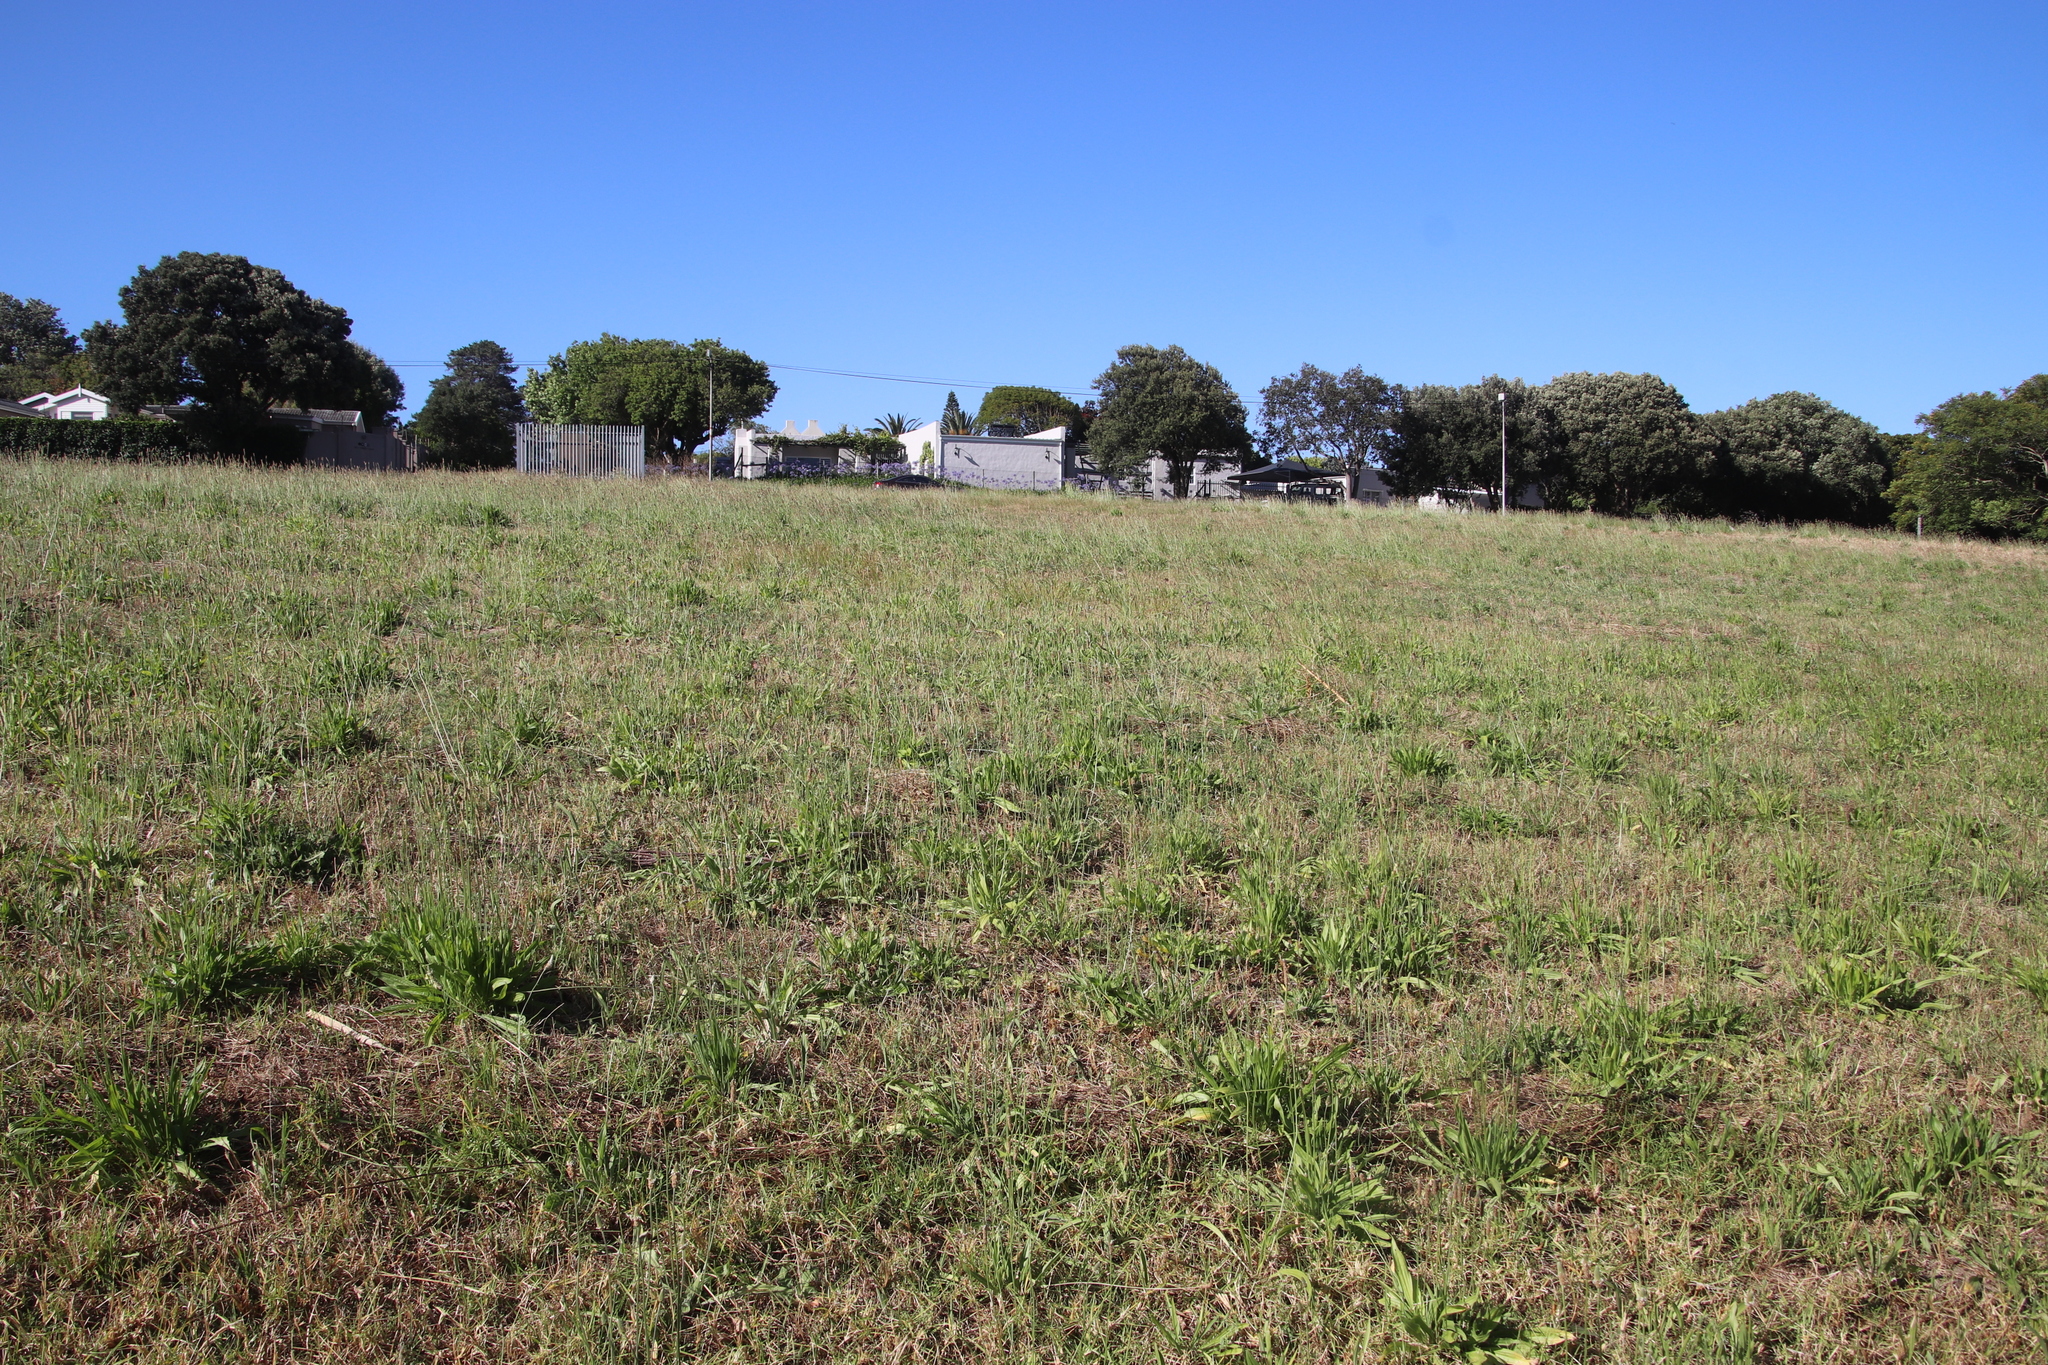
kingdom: Plantae
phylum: Tracheophyta
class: Magnoliopsida
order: Lamiales
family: Plantaginaceae
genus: Plantago
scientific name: Plantago lanceolata
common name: Ribwort plantain
